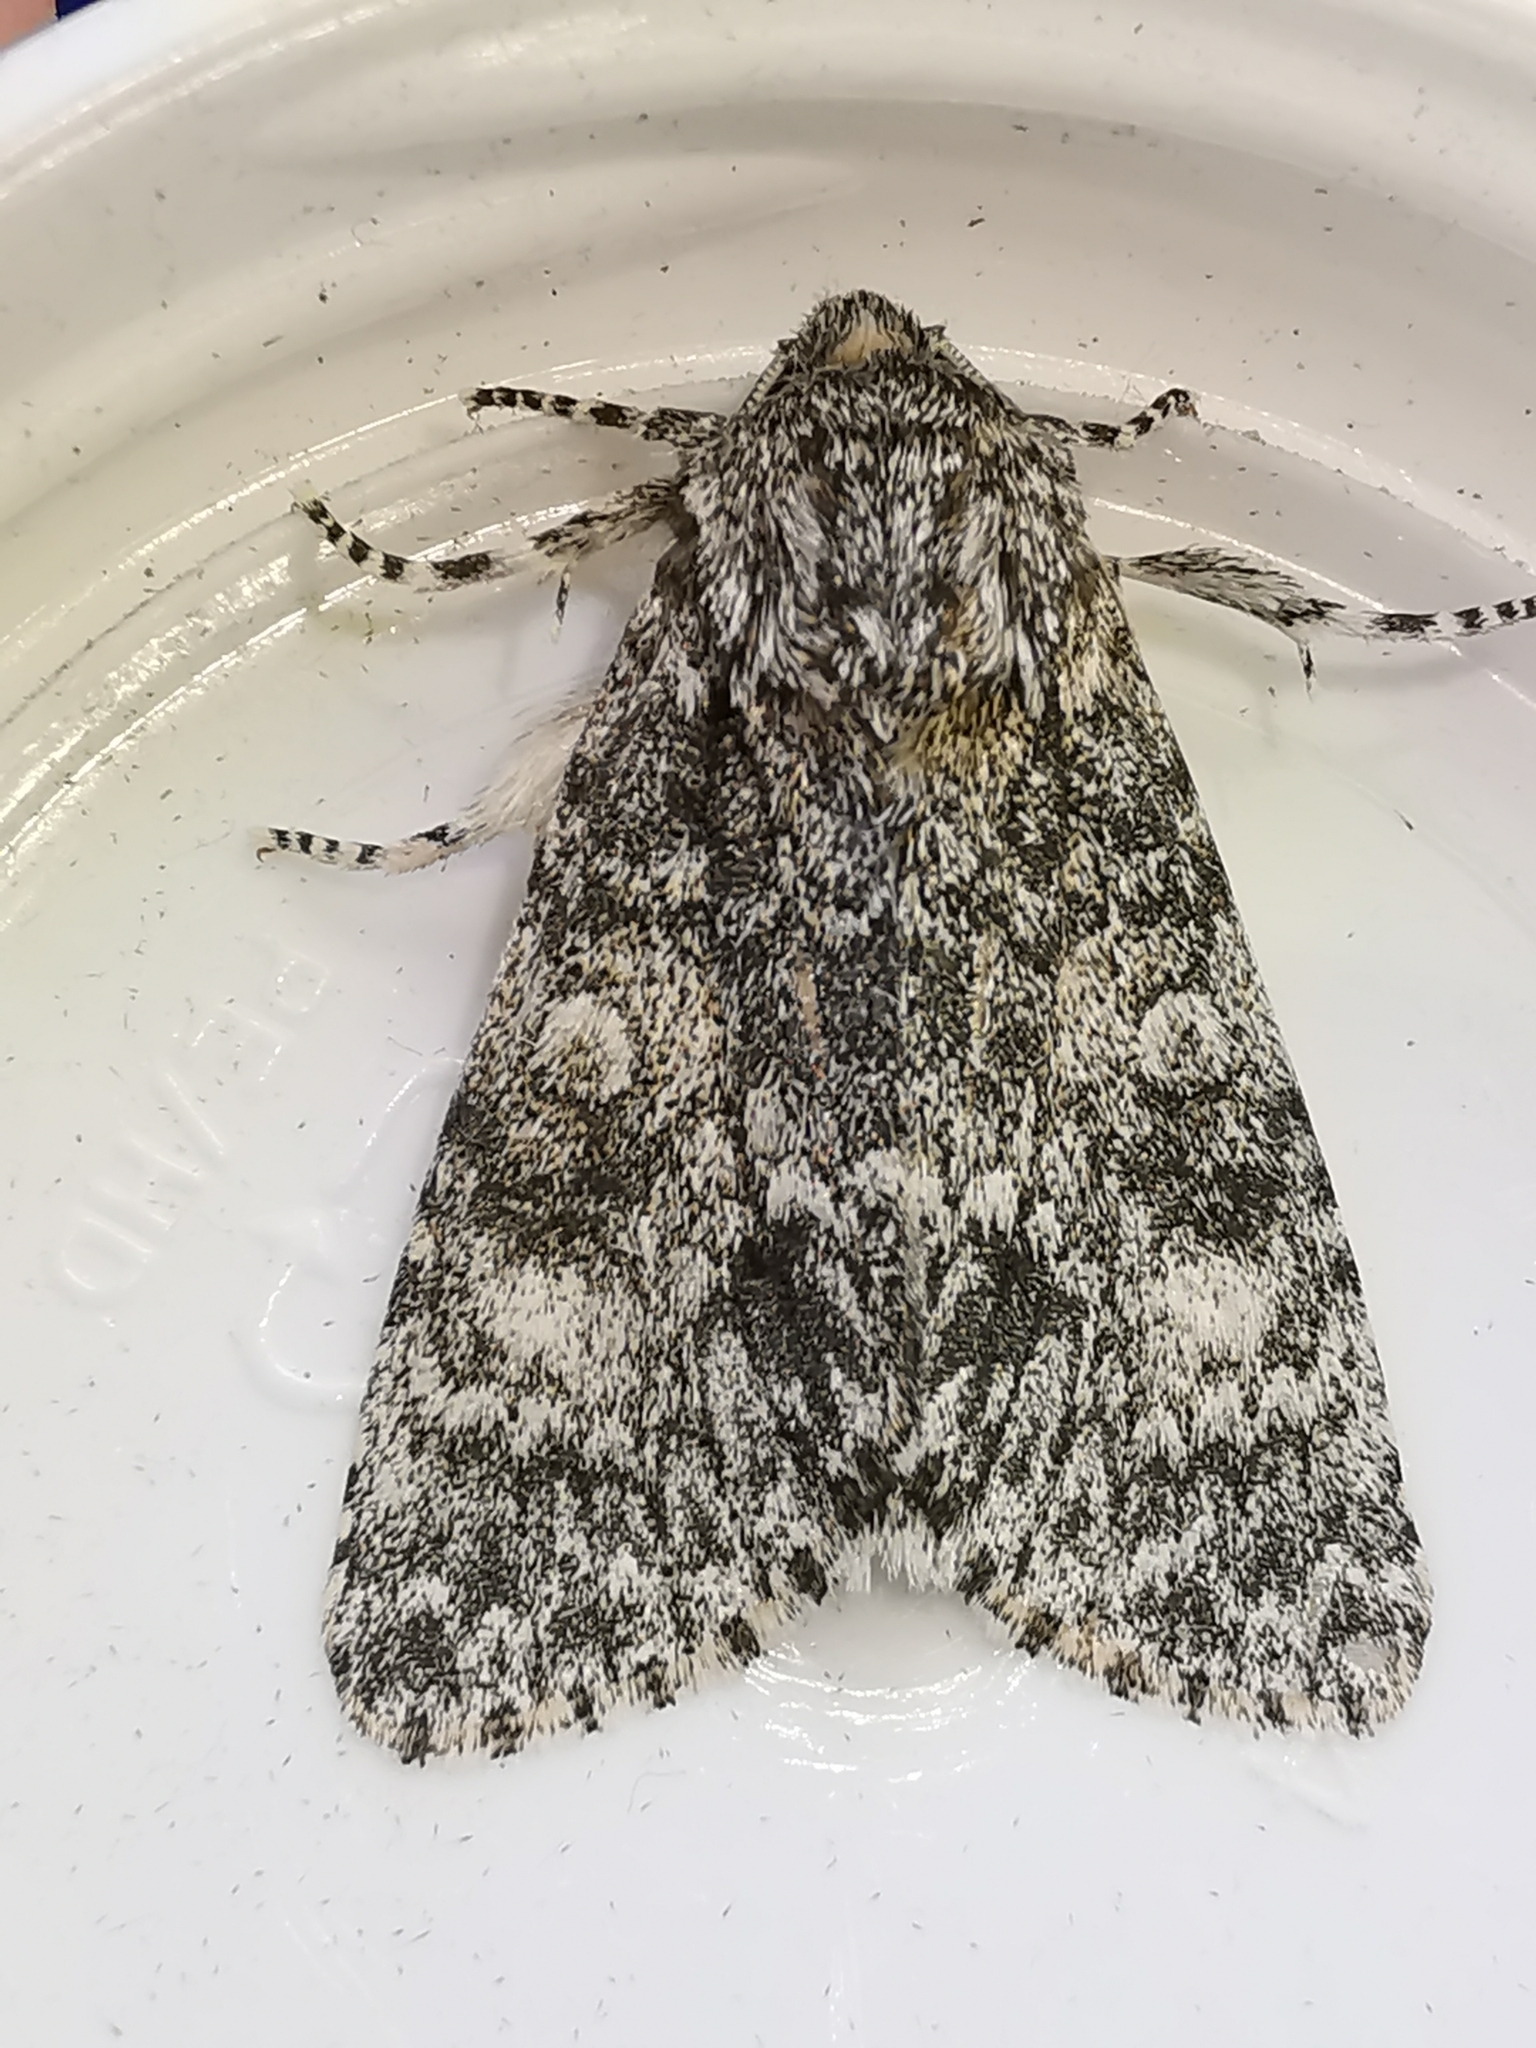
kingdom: Animalia
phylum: Arthropoda
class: Insecta
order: Lepidoptera
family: Noctuidae
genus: Acronicta
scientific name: Acronicta megacephala
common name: Poplar grey
